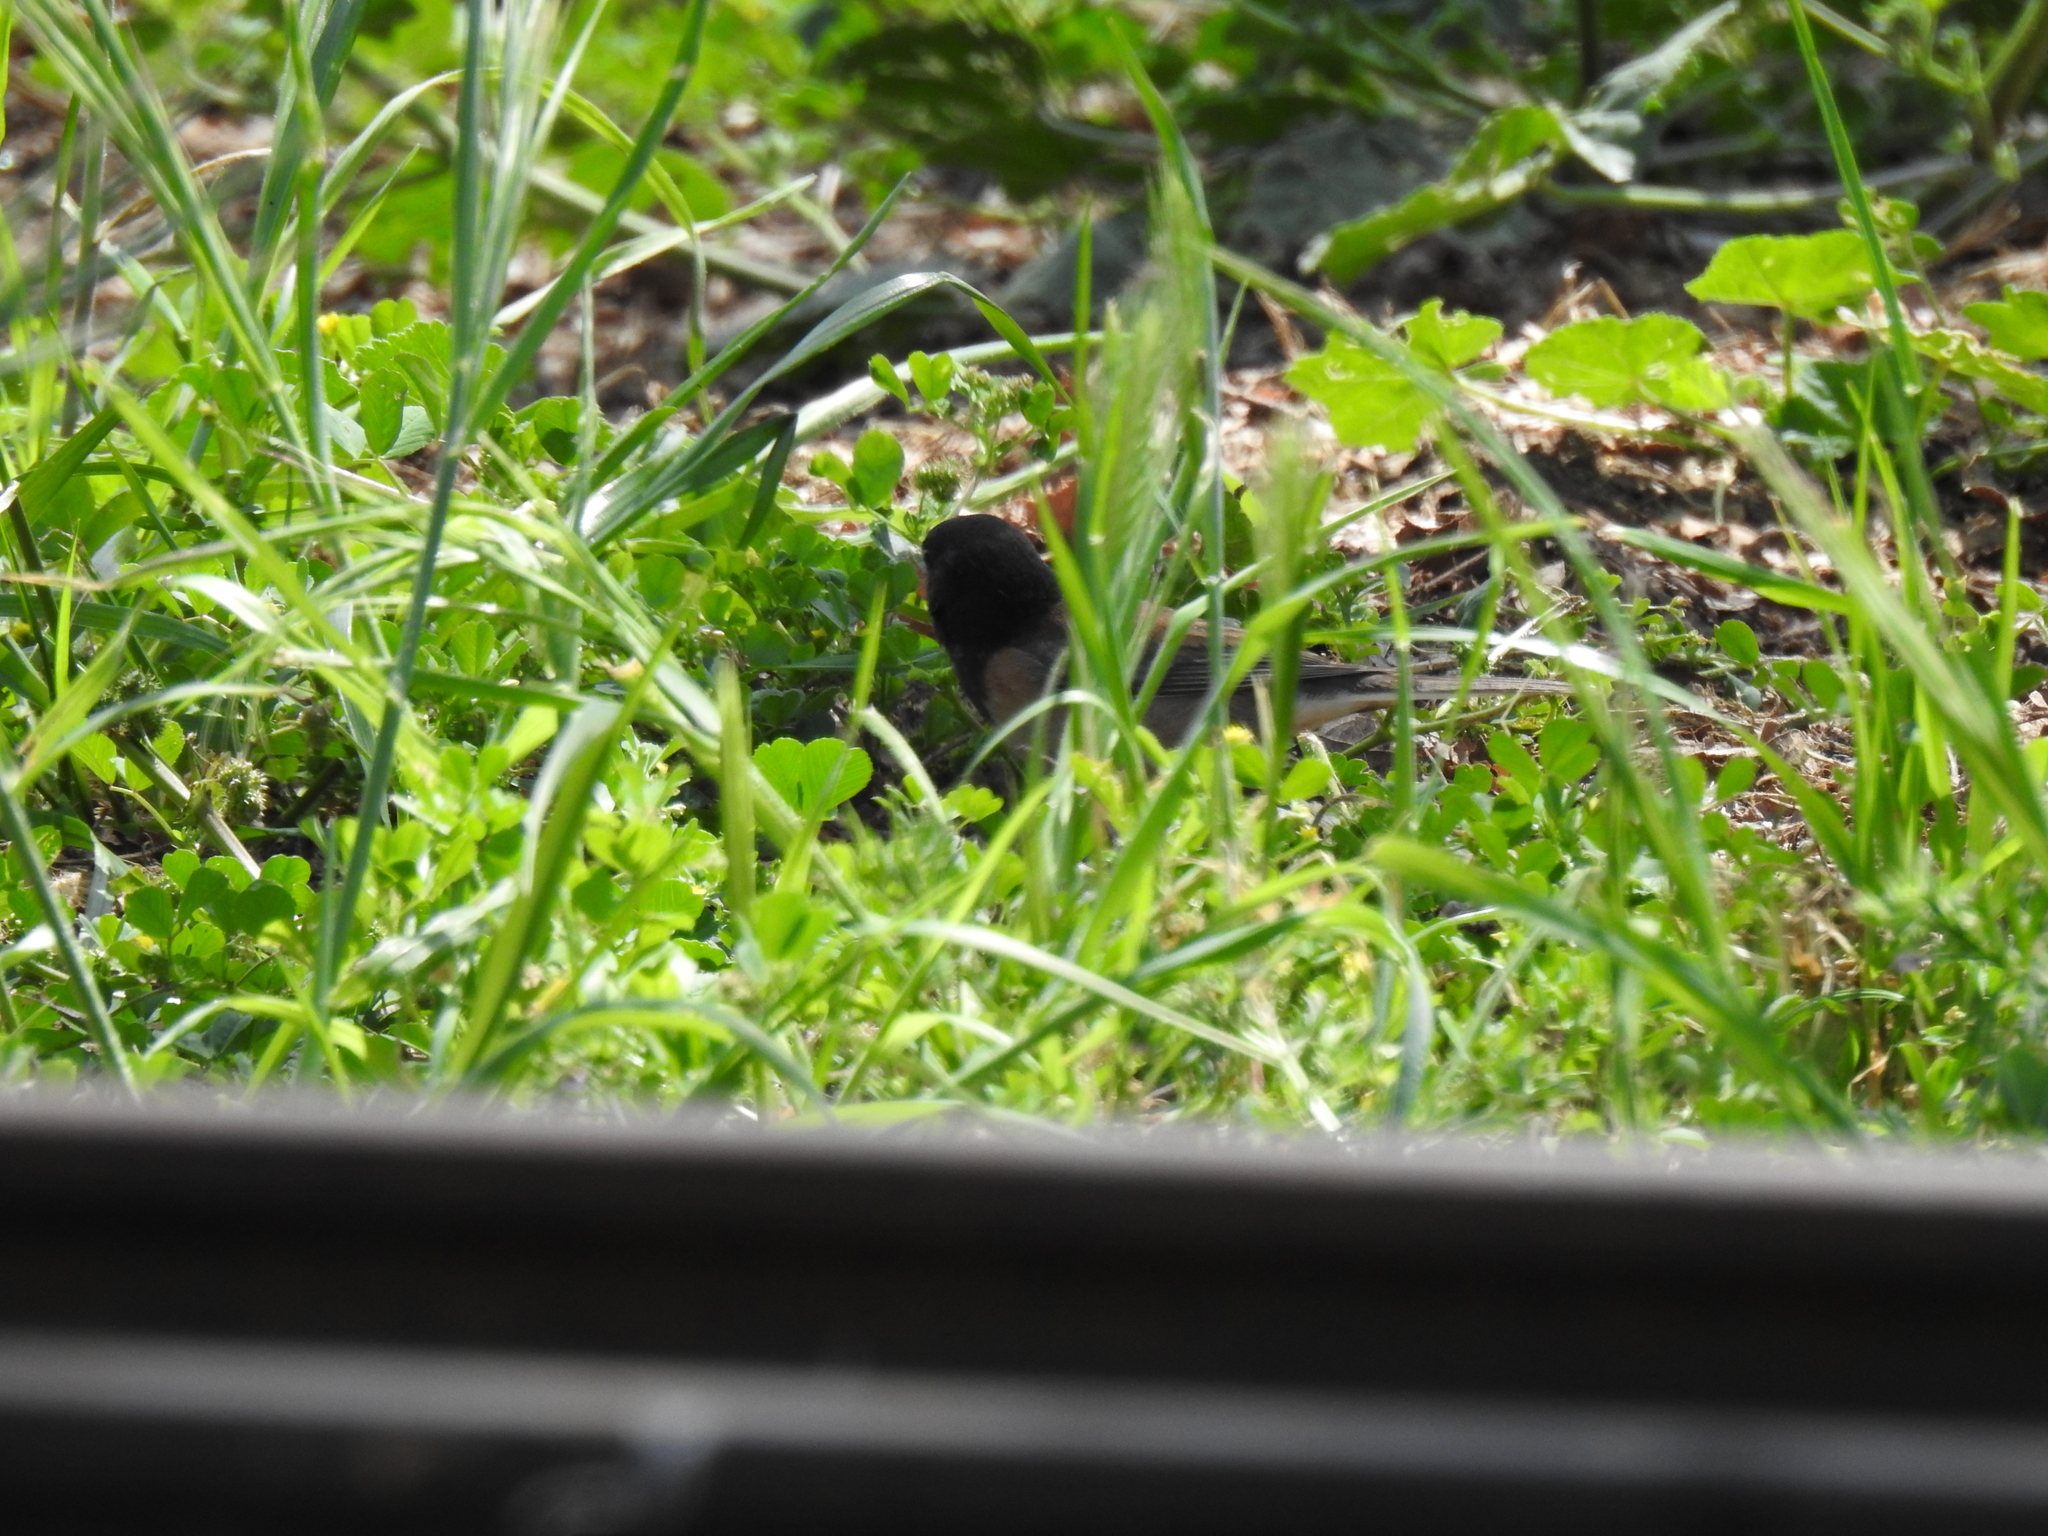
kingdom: Animalia
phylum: Chordata
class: Aves
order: Passeriformes
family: Passerellidae
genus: Junco
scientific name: Junco hyemalis
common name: Dark-eyed junco
